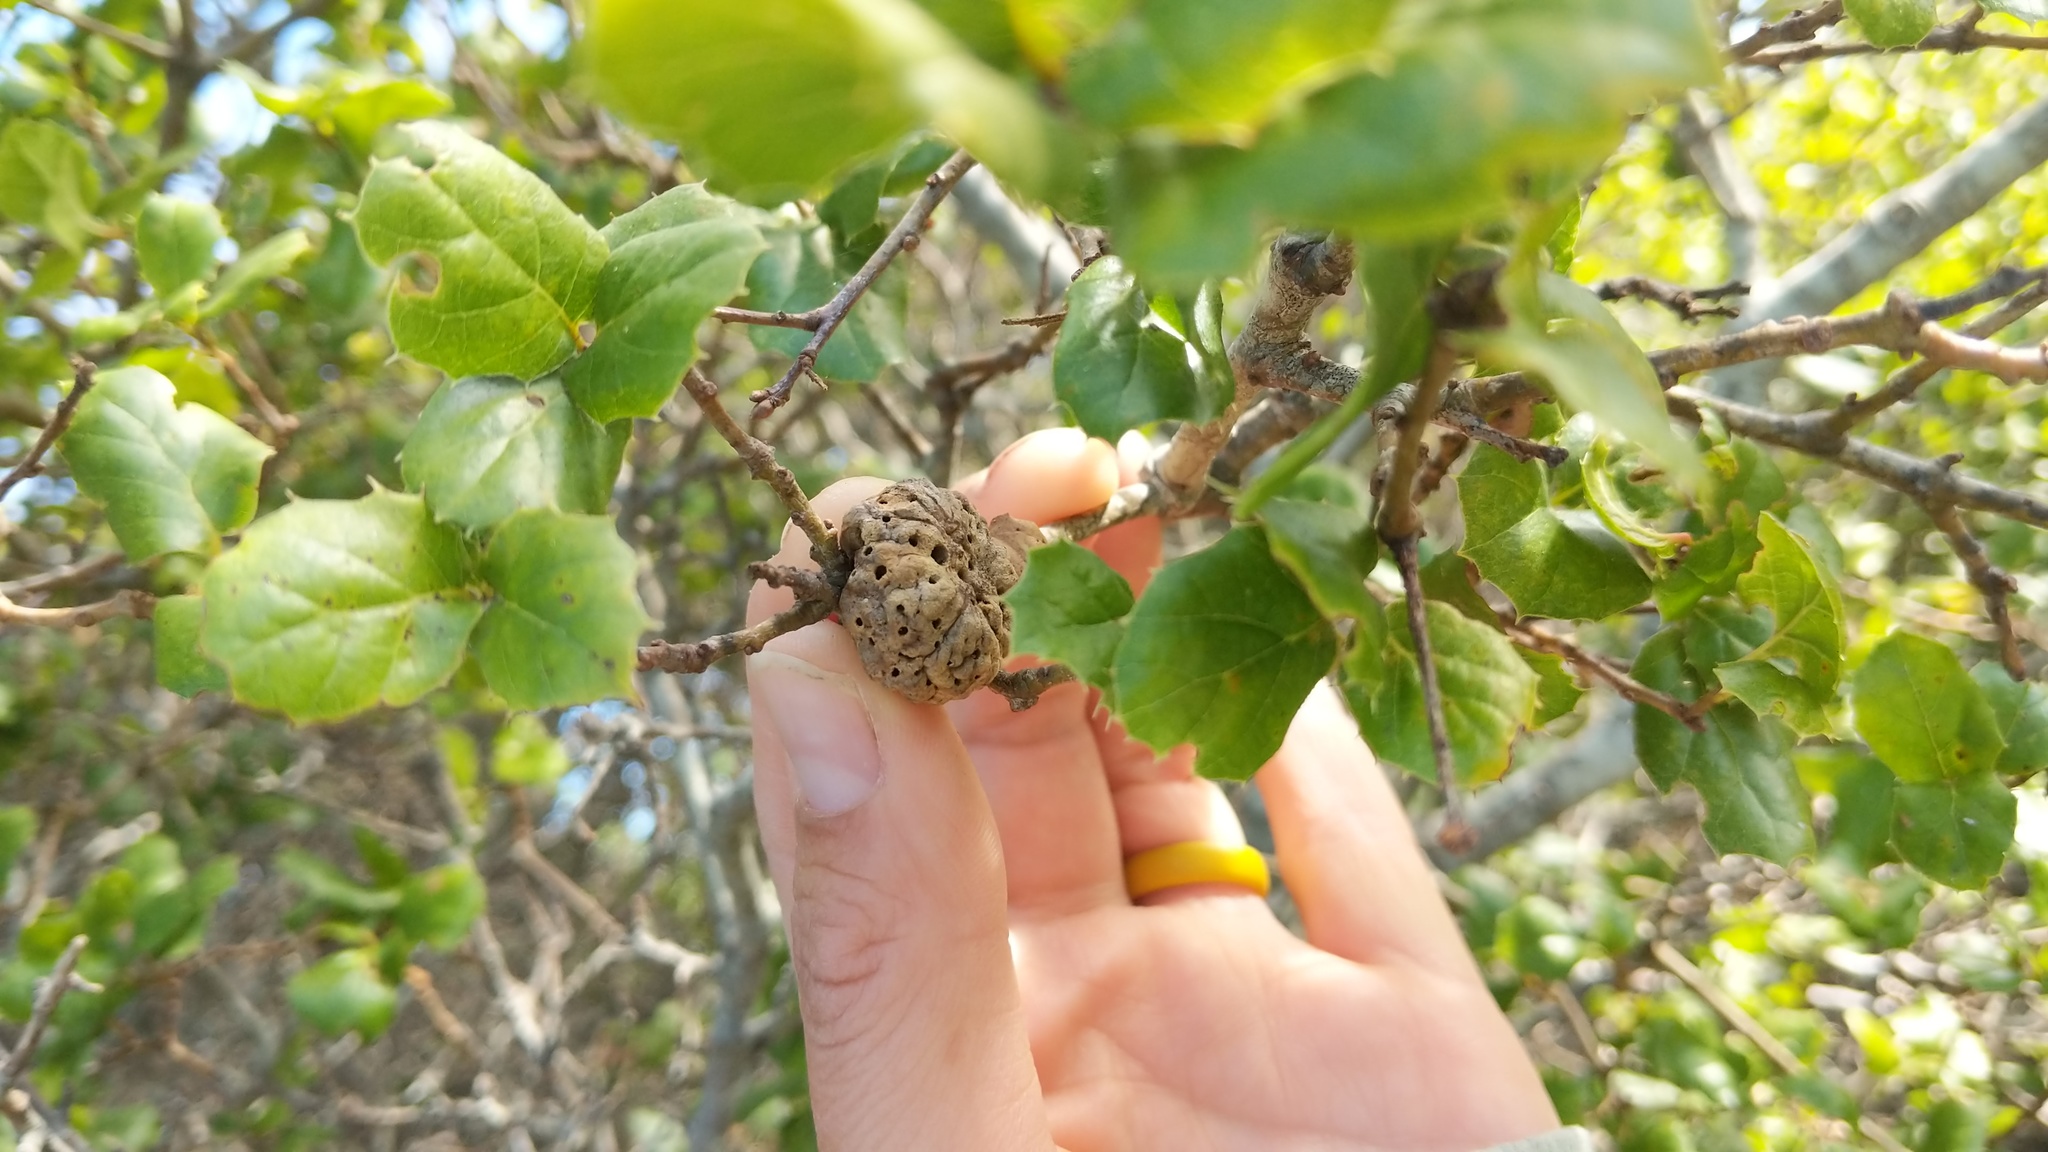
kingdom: Animalia
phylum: Arthropoda
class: Insecta
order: Hymenoptera
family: Cynipidae
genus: Amphibolips
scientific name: Amphibolips quercuspomiformis
